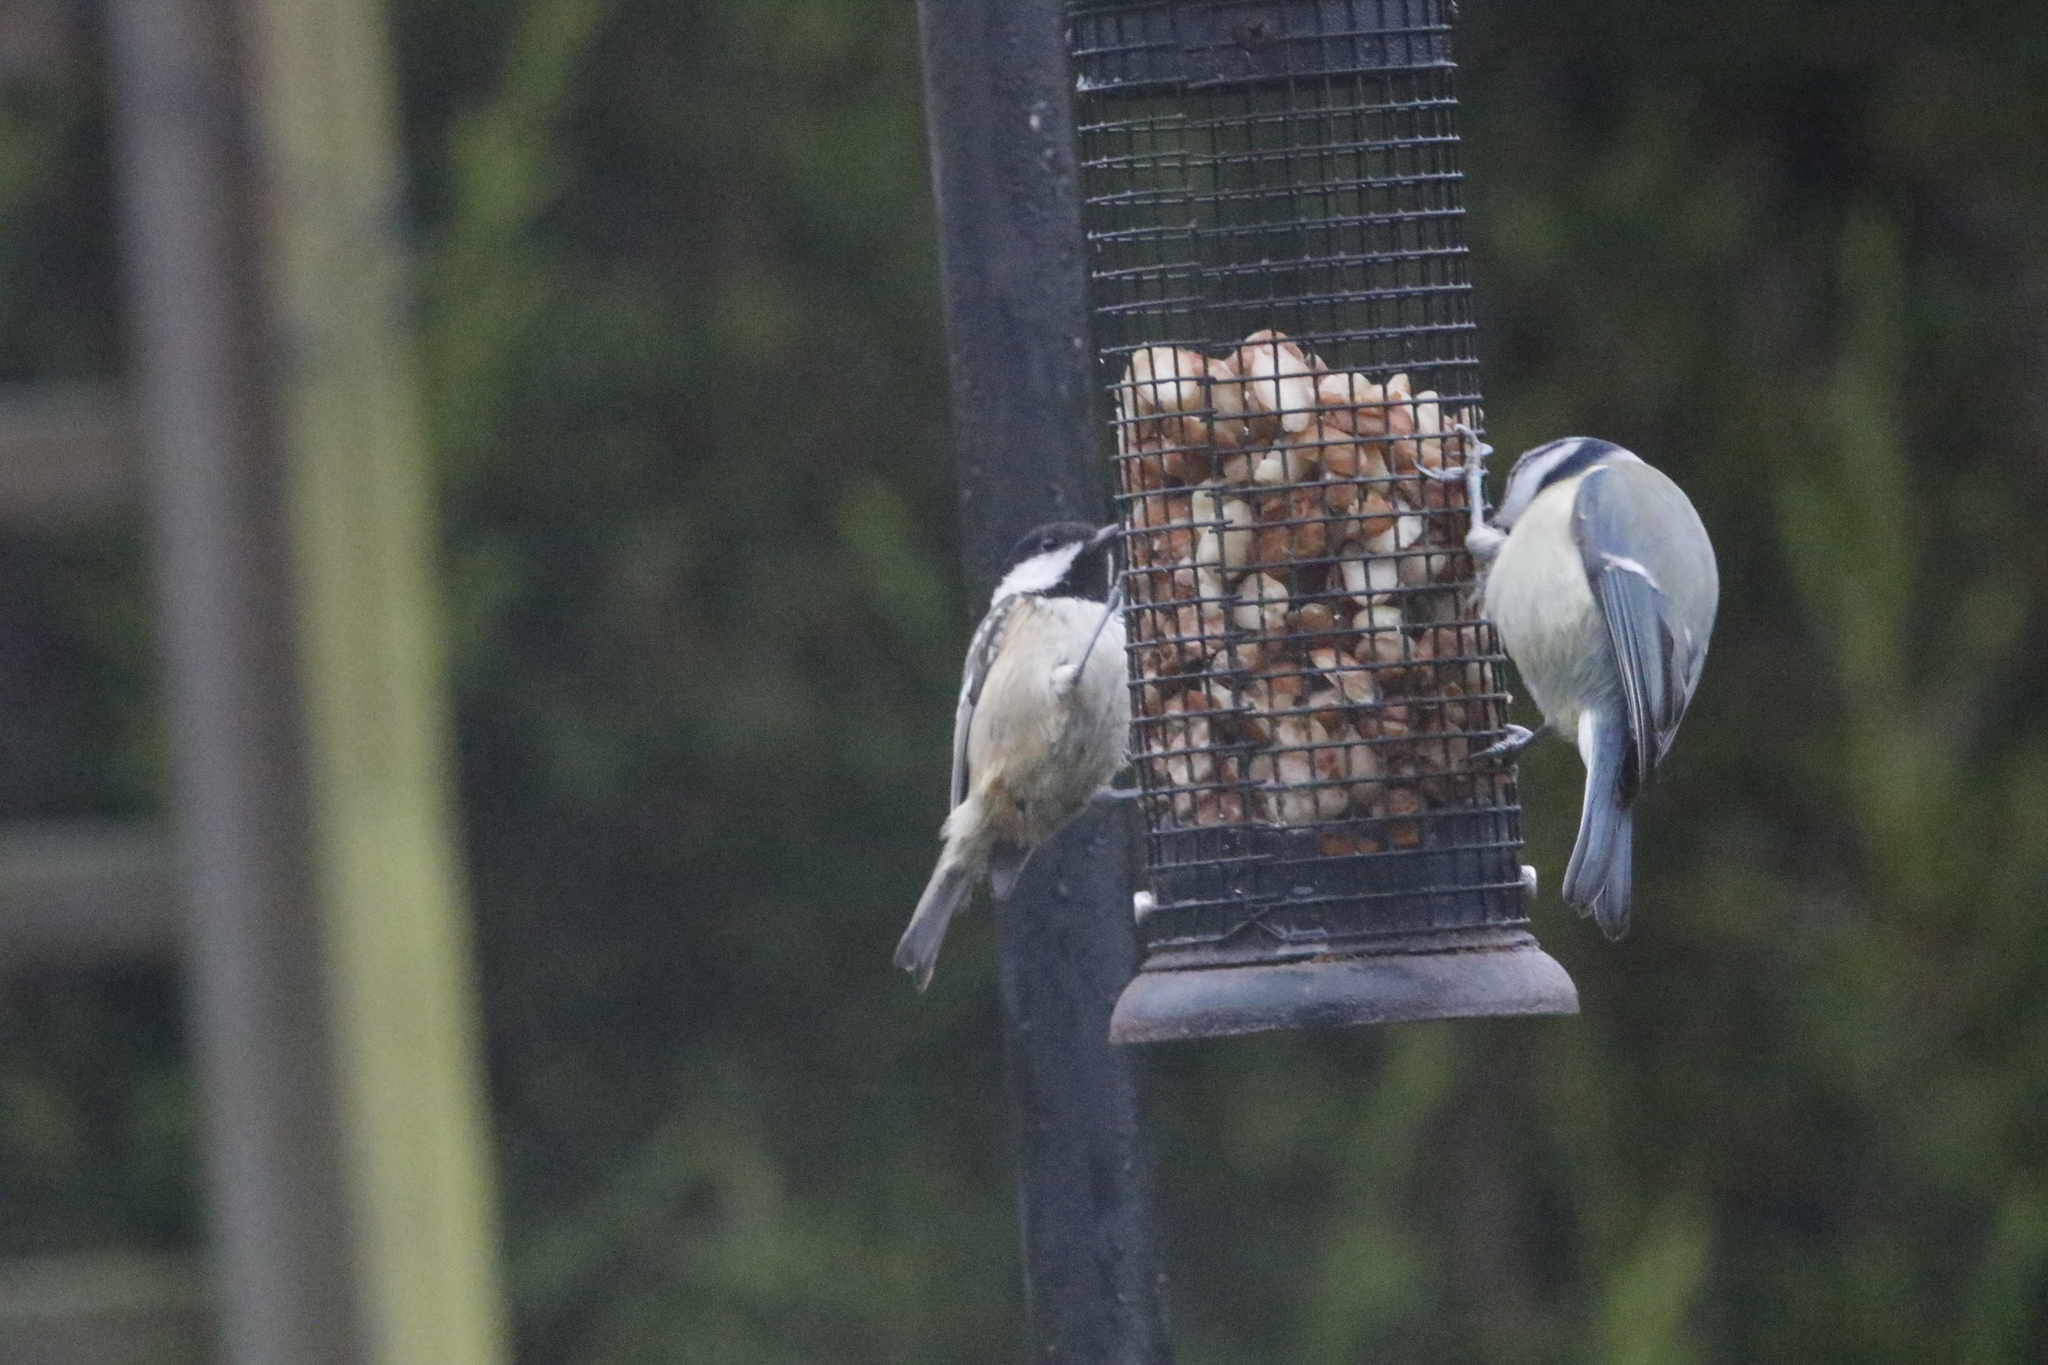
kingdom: Animalia
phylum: Chordata
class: Aves
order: Passeriformes
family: Paridae
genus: Periparus
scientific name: Periparus ater
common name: Coal tit
